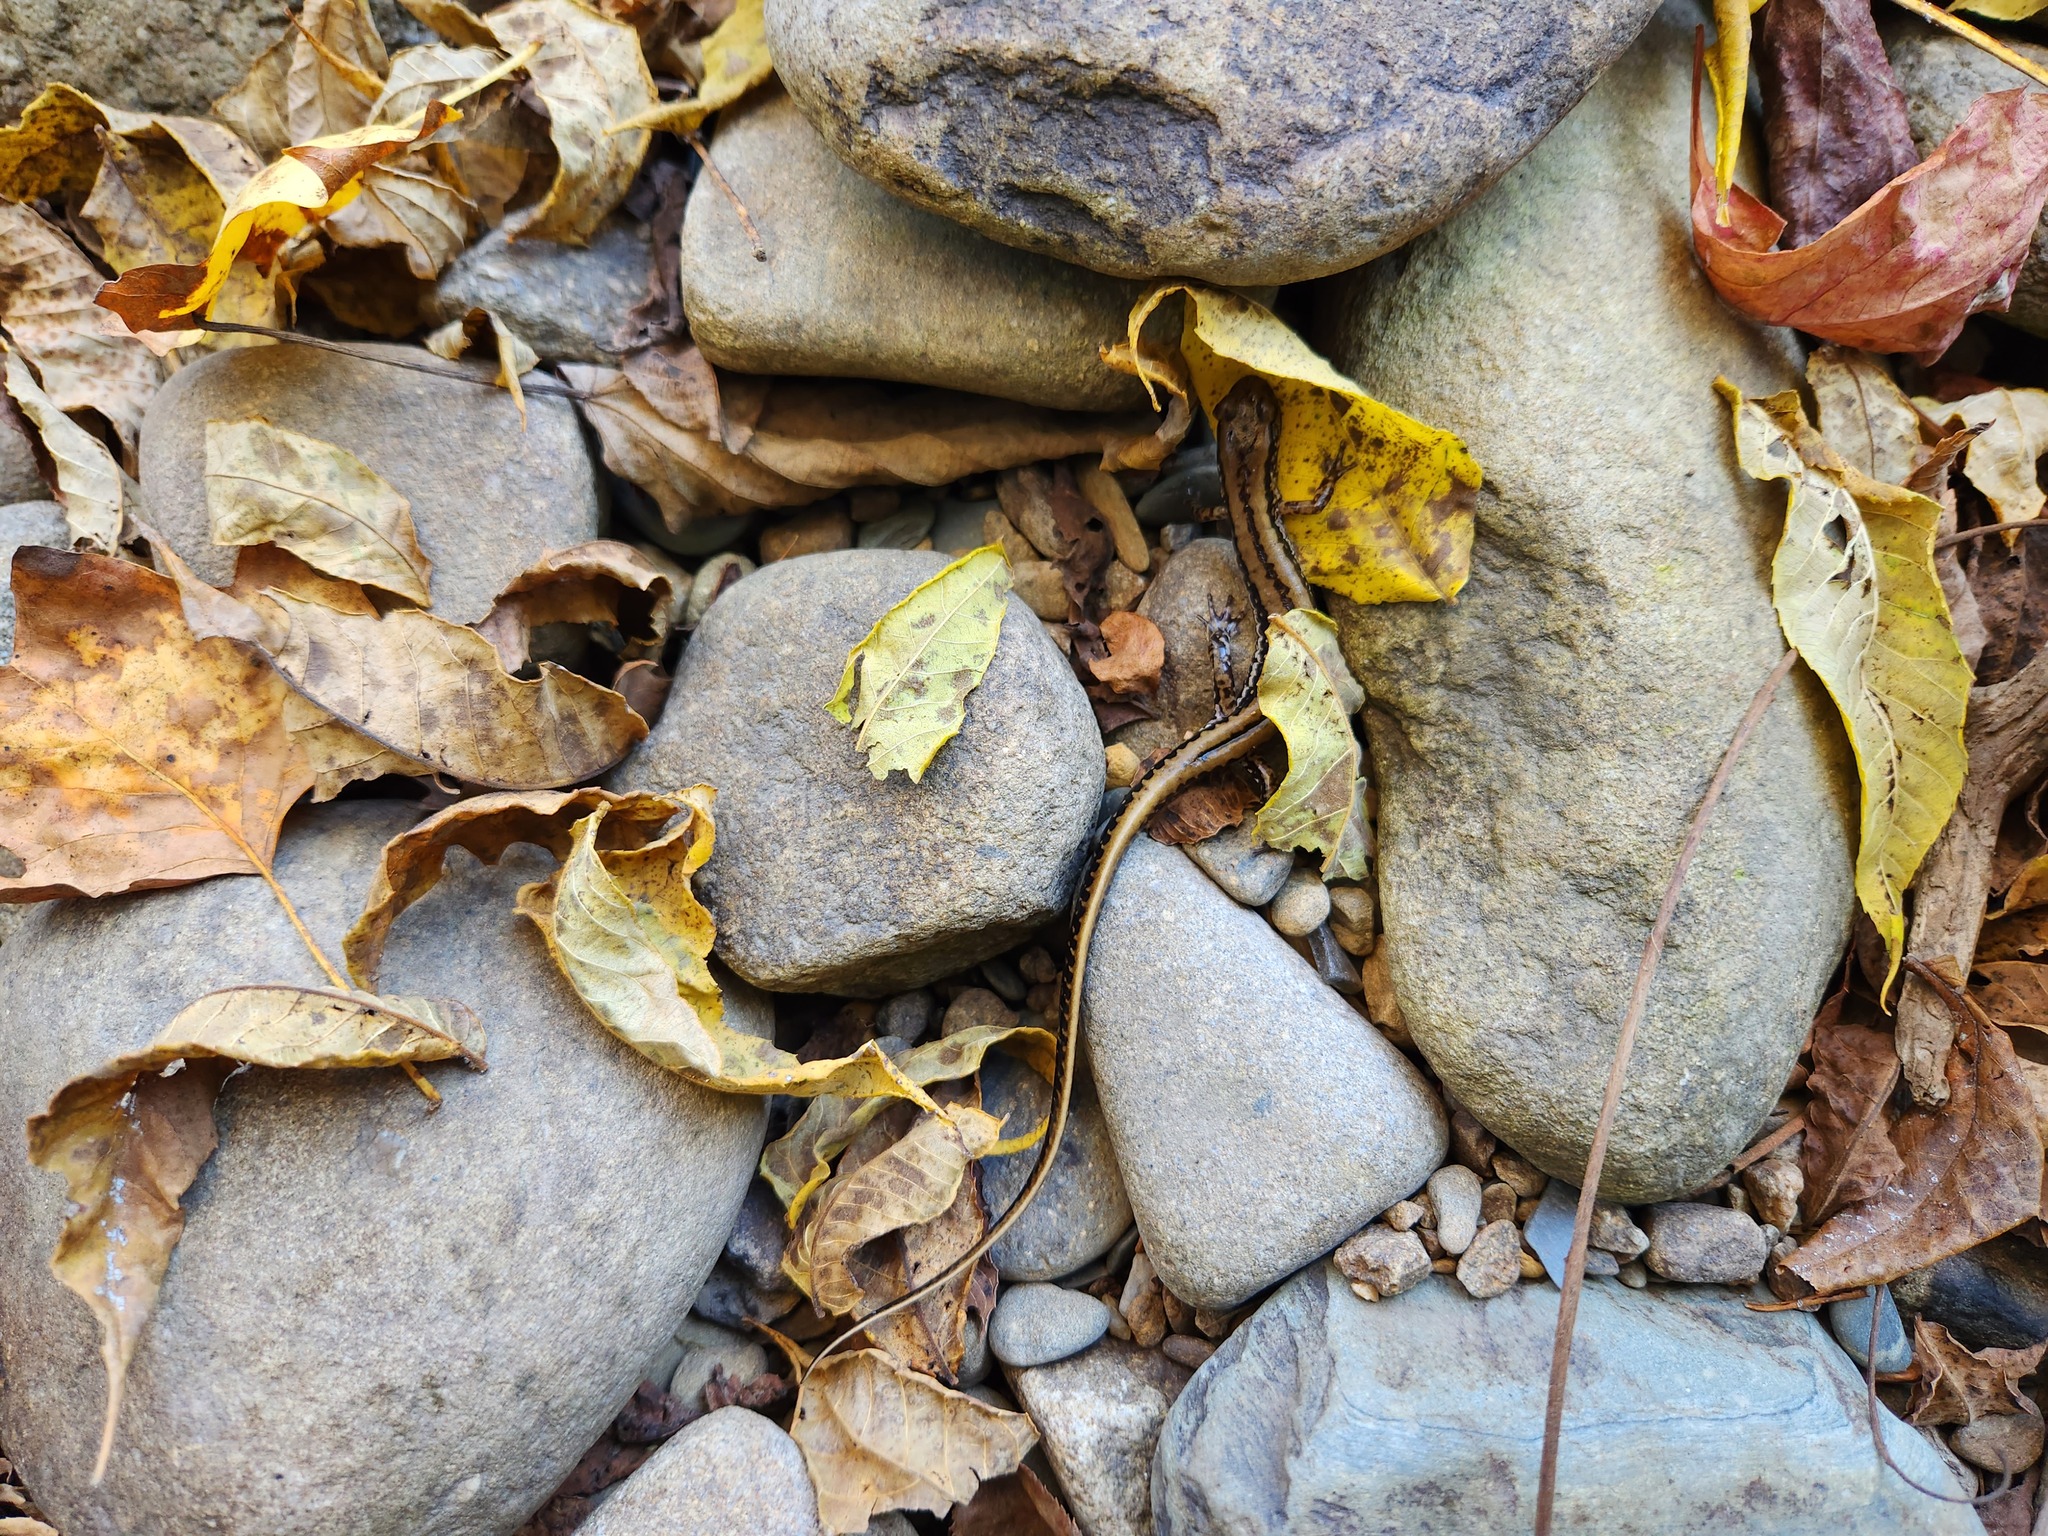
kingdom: Animalia
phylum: Chordata
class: Amphibia
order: Caudata
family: Plethodontidae
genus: Eurycea
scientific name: Eurycea guttolineata
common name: Three-lined salamander
